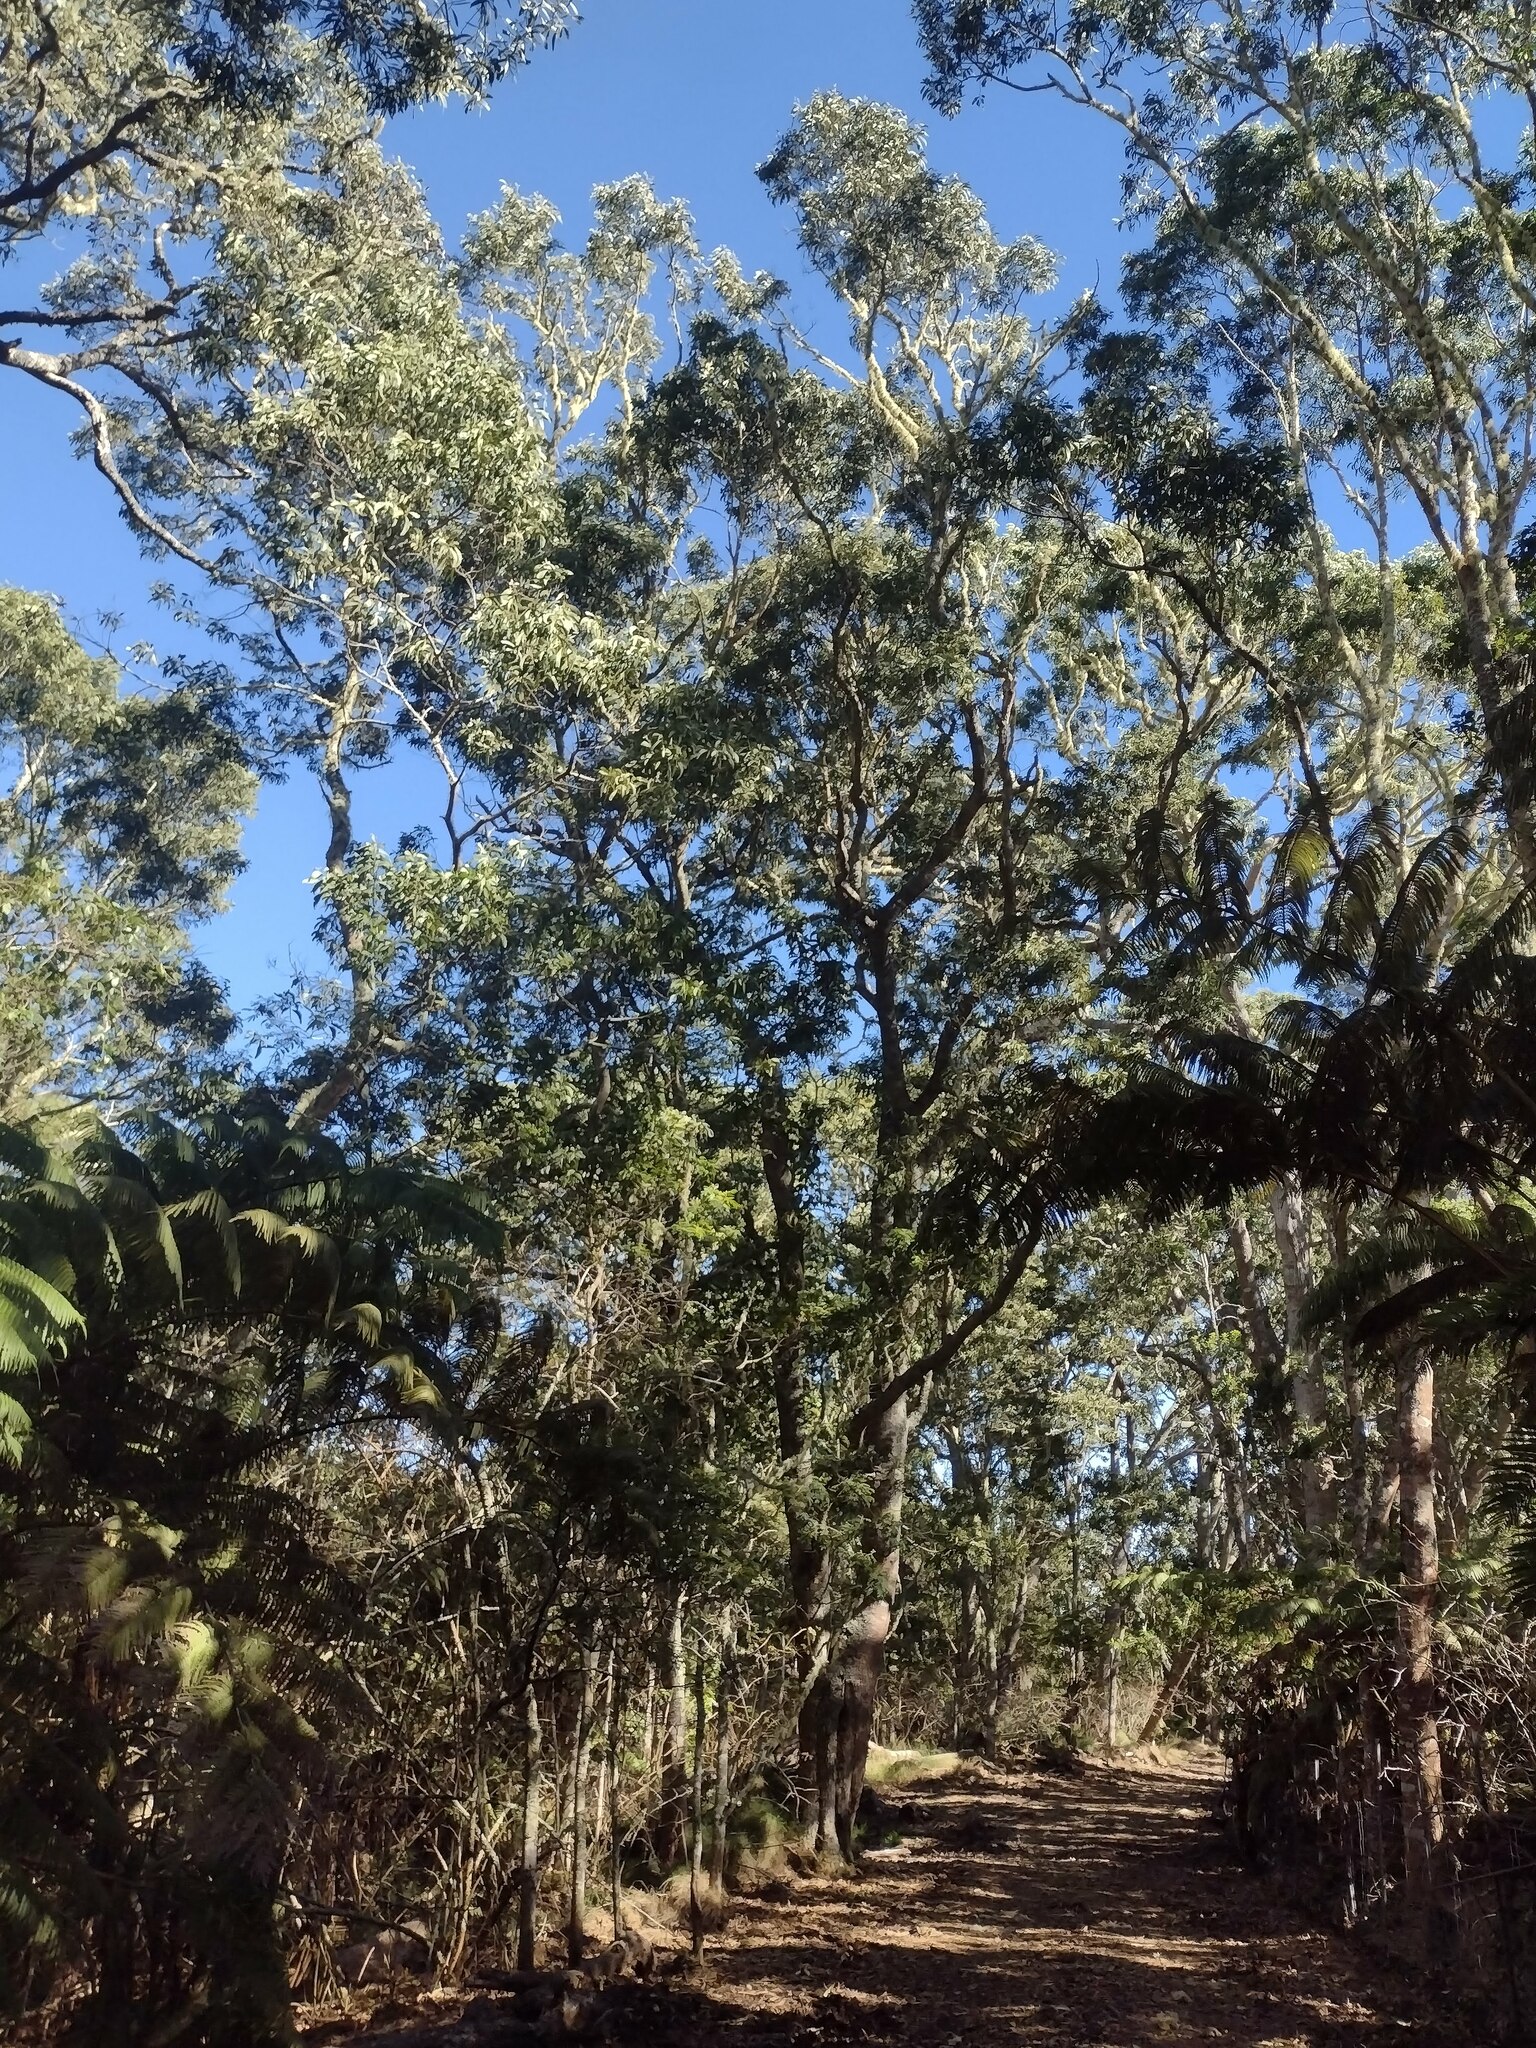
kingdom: Plantae
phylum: Tracheophyta
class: Magnoliopsida
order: Fabales
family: Fabaceae
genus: Acacia
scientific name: Acacia koa
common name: Gray koa
